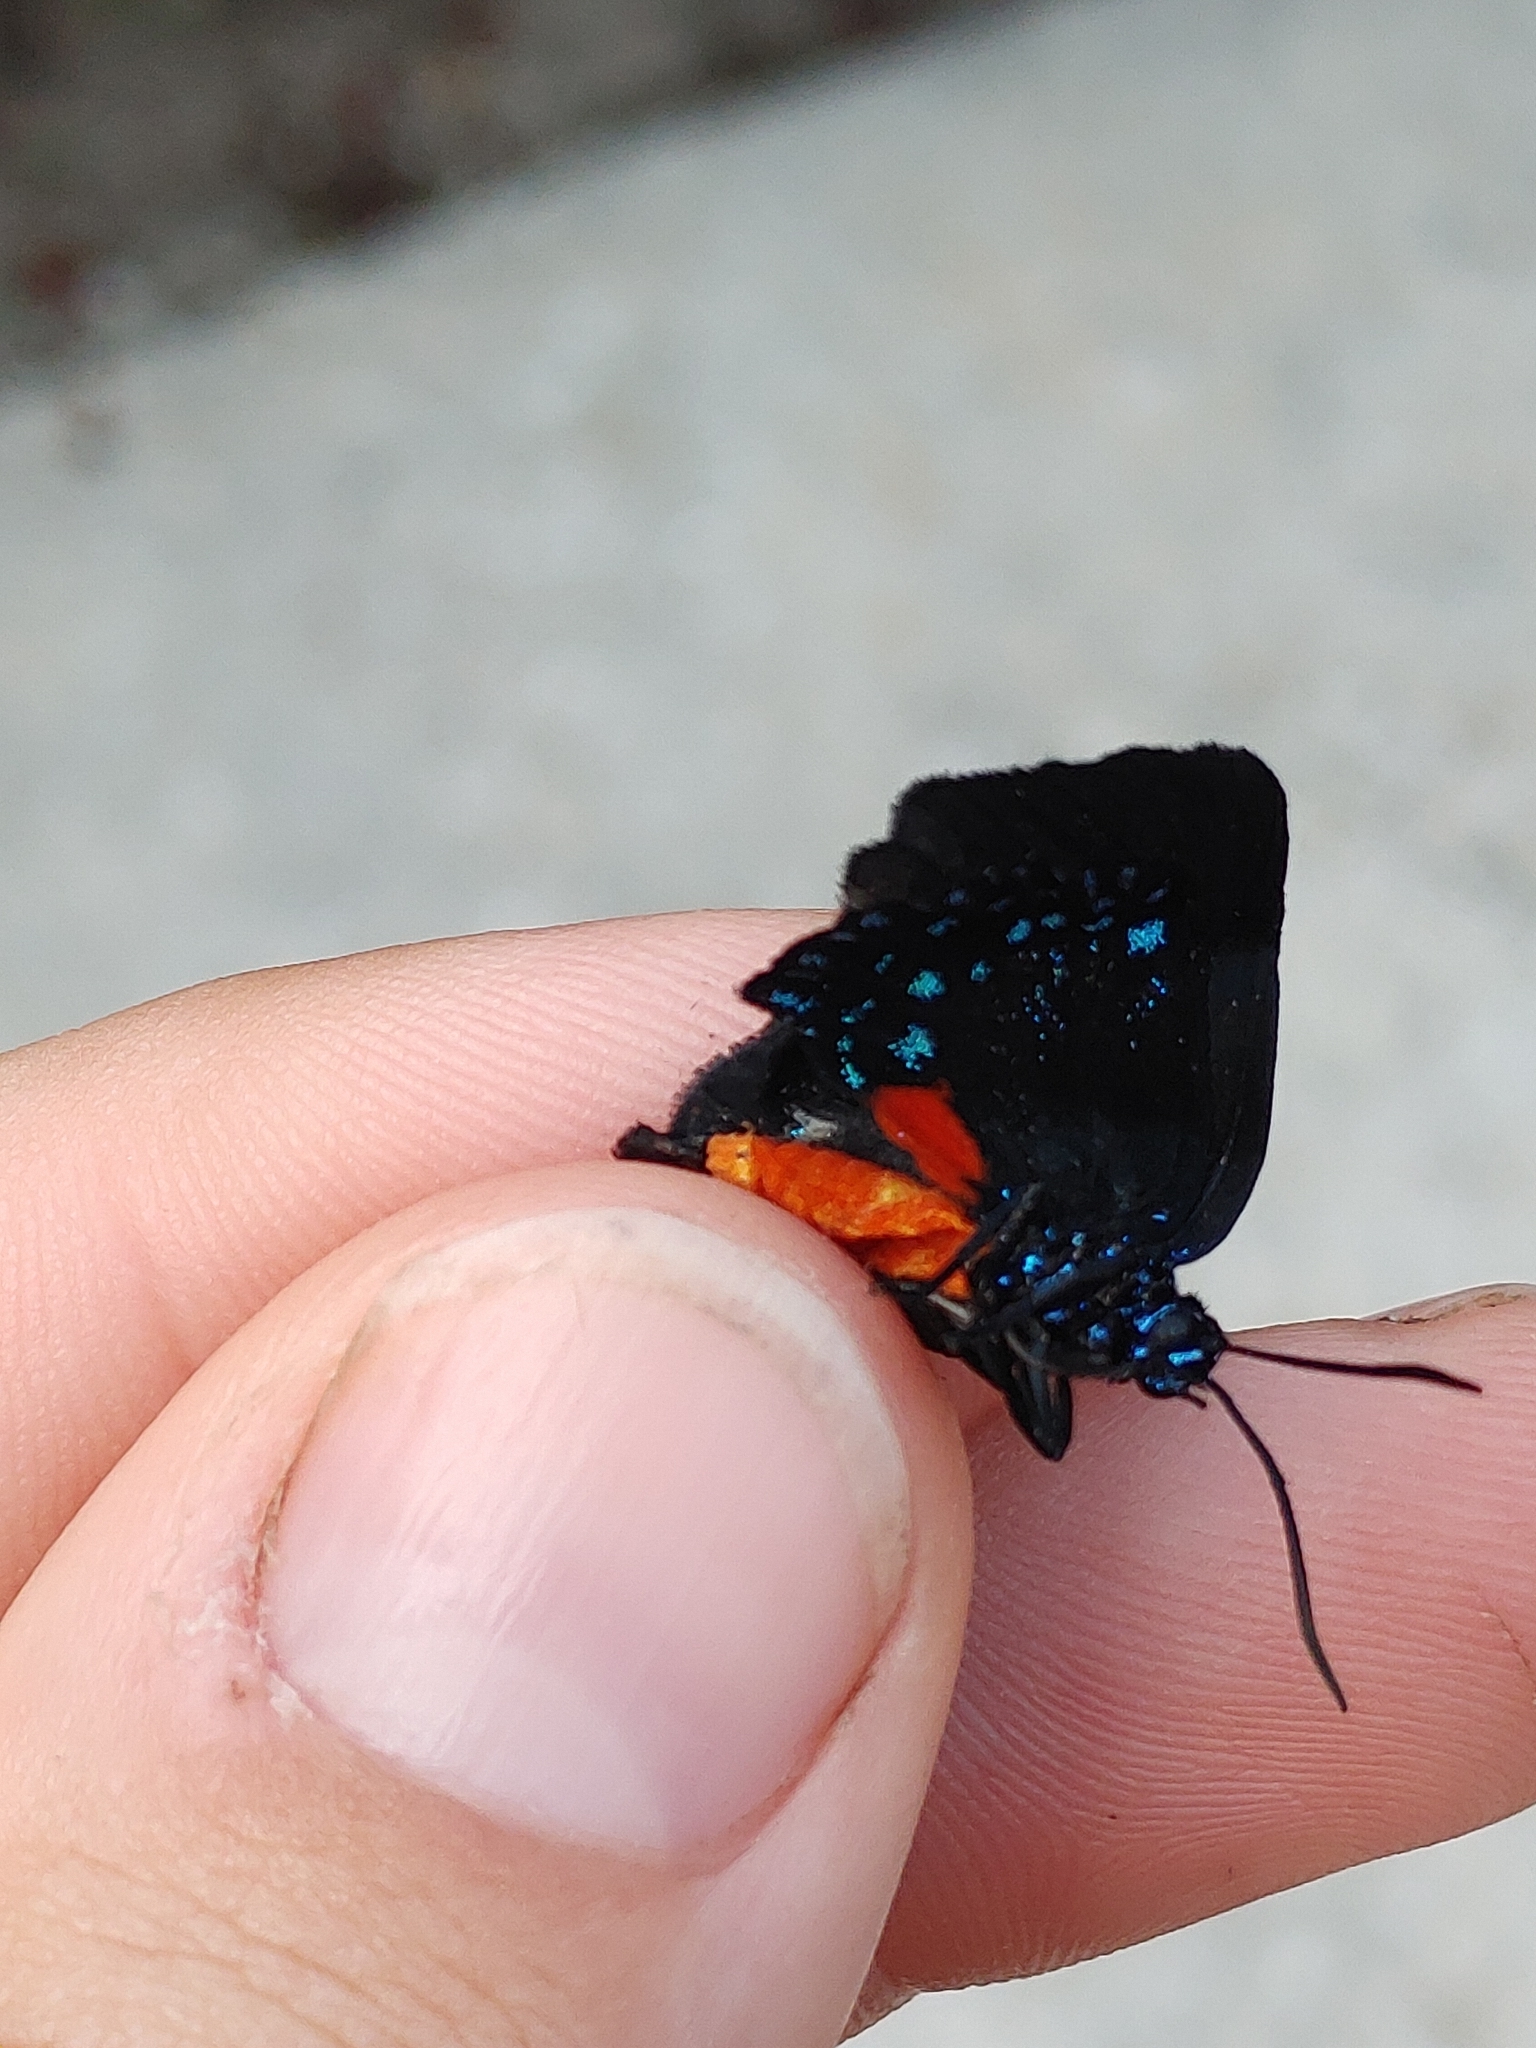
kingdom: Animalia
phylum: Arthropoda
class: Insecta
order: Lepidoptera
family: Lycaenidae
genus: Eumaeus
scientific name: Eumaeus atala
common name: Atala
